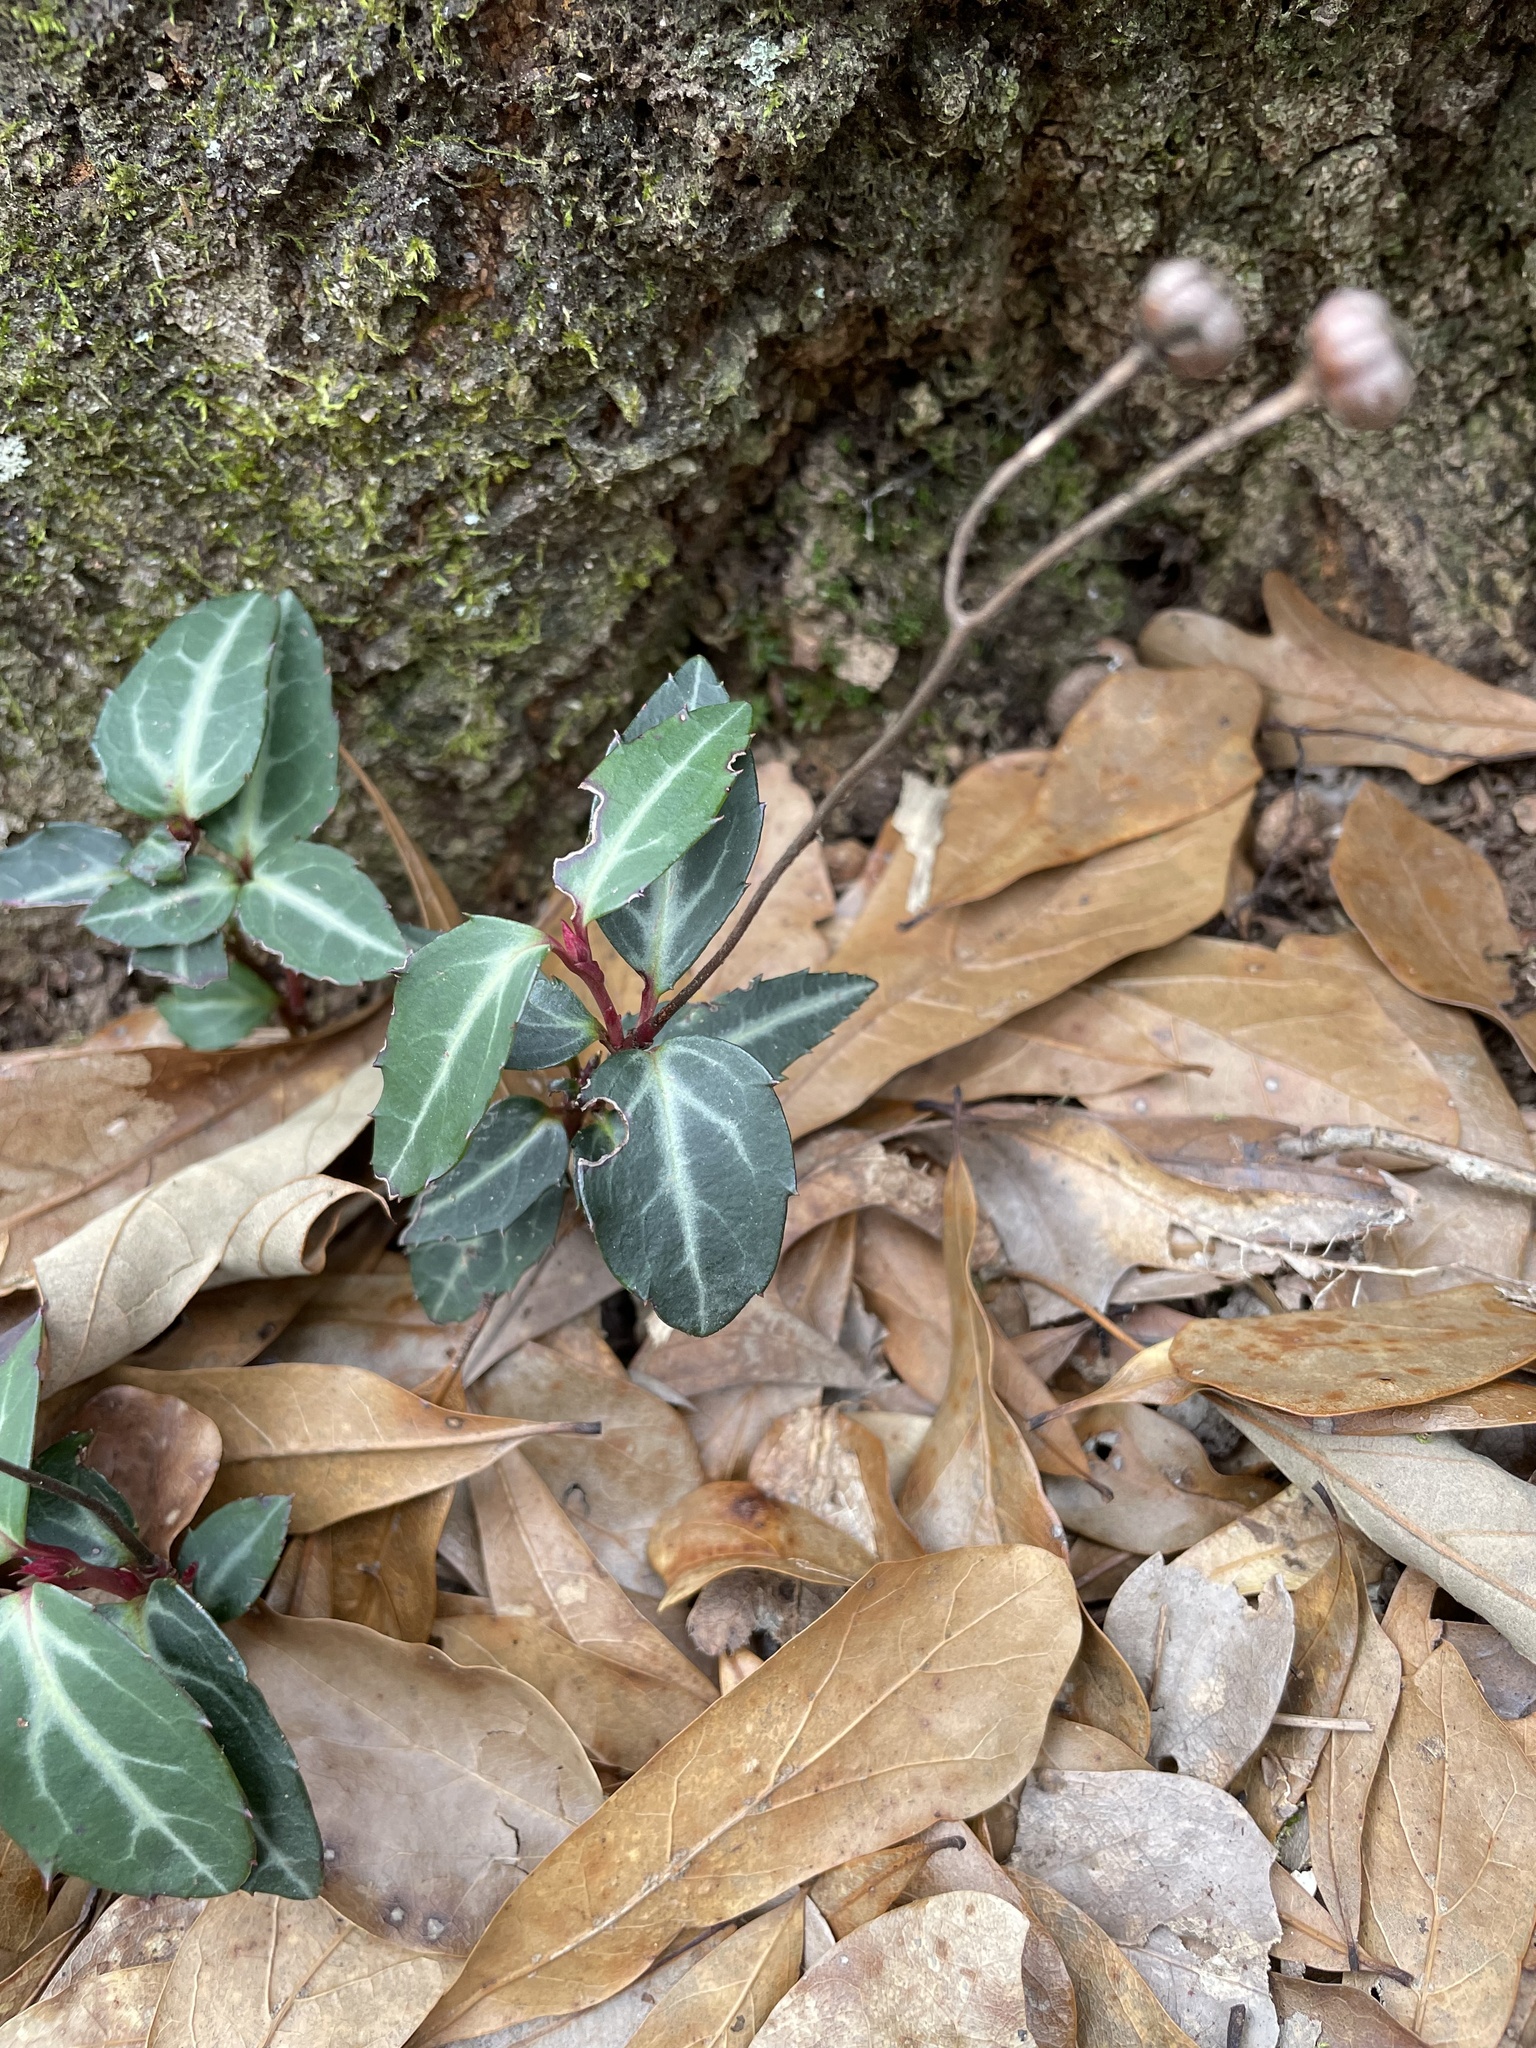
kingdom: Plantae
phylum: Tracheophyta
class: Magnoliopsida
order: Ericales
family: Ericaceae
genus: Chimaphila
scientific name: Chimaphila maculata
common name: Spotted pipsissewa
